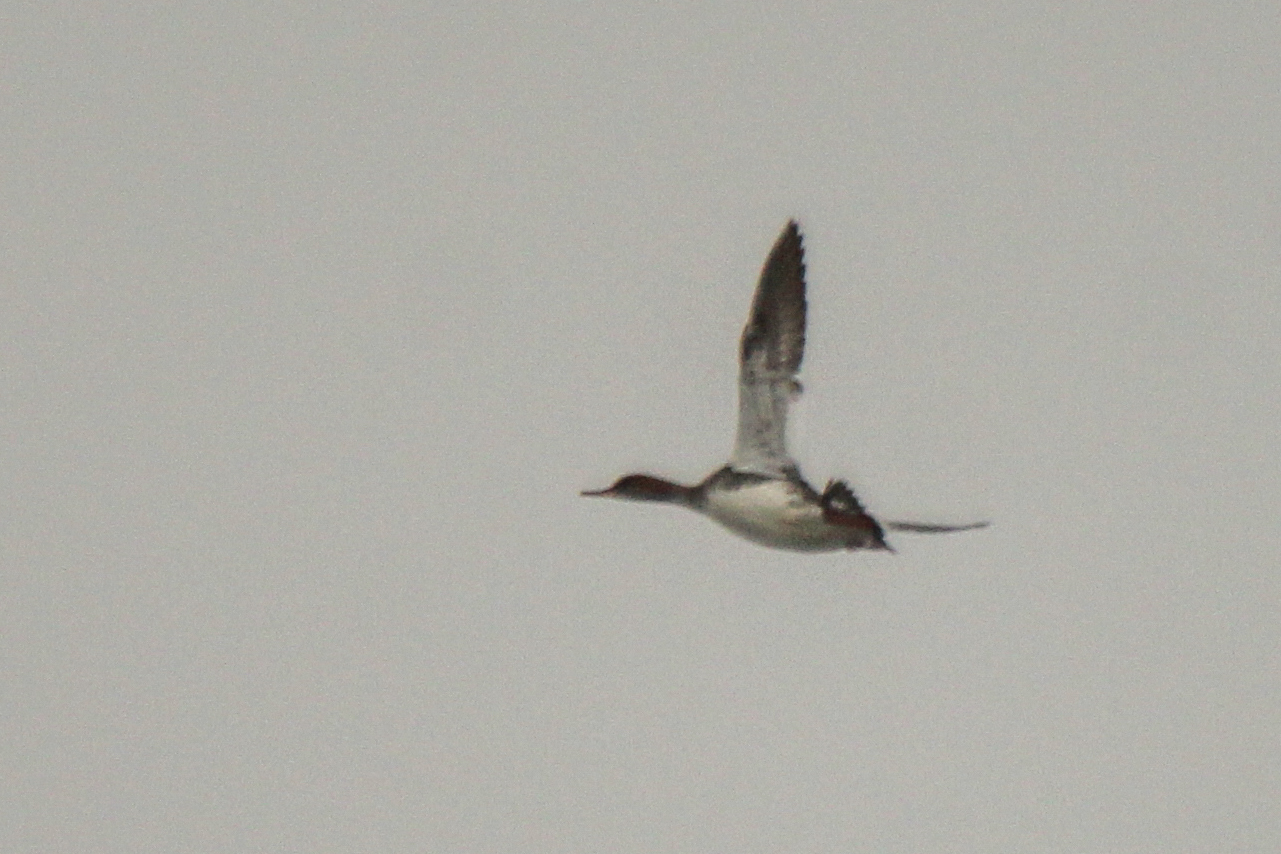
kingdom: Animalia
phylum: Chordata
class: Aves
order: Anseriformes
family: Anatidae
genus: Mergus
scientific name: Mergus serrator
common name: Red-breasted merganser
